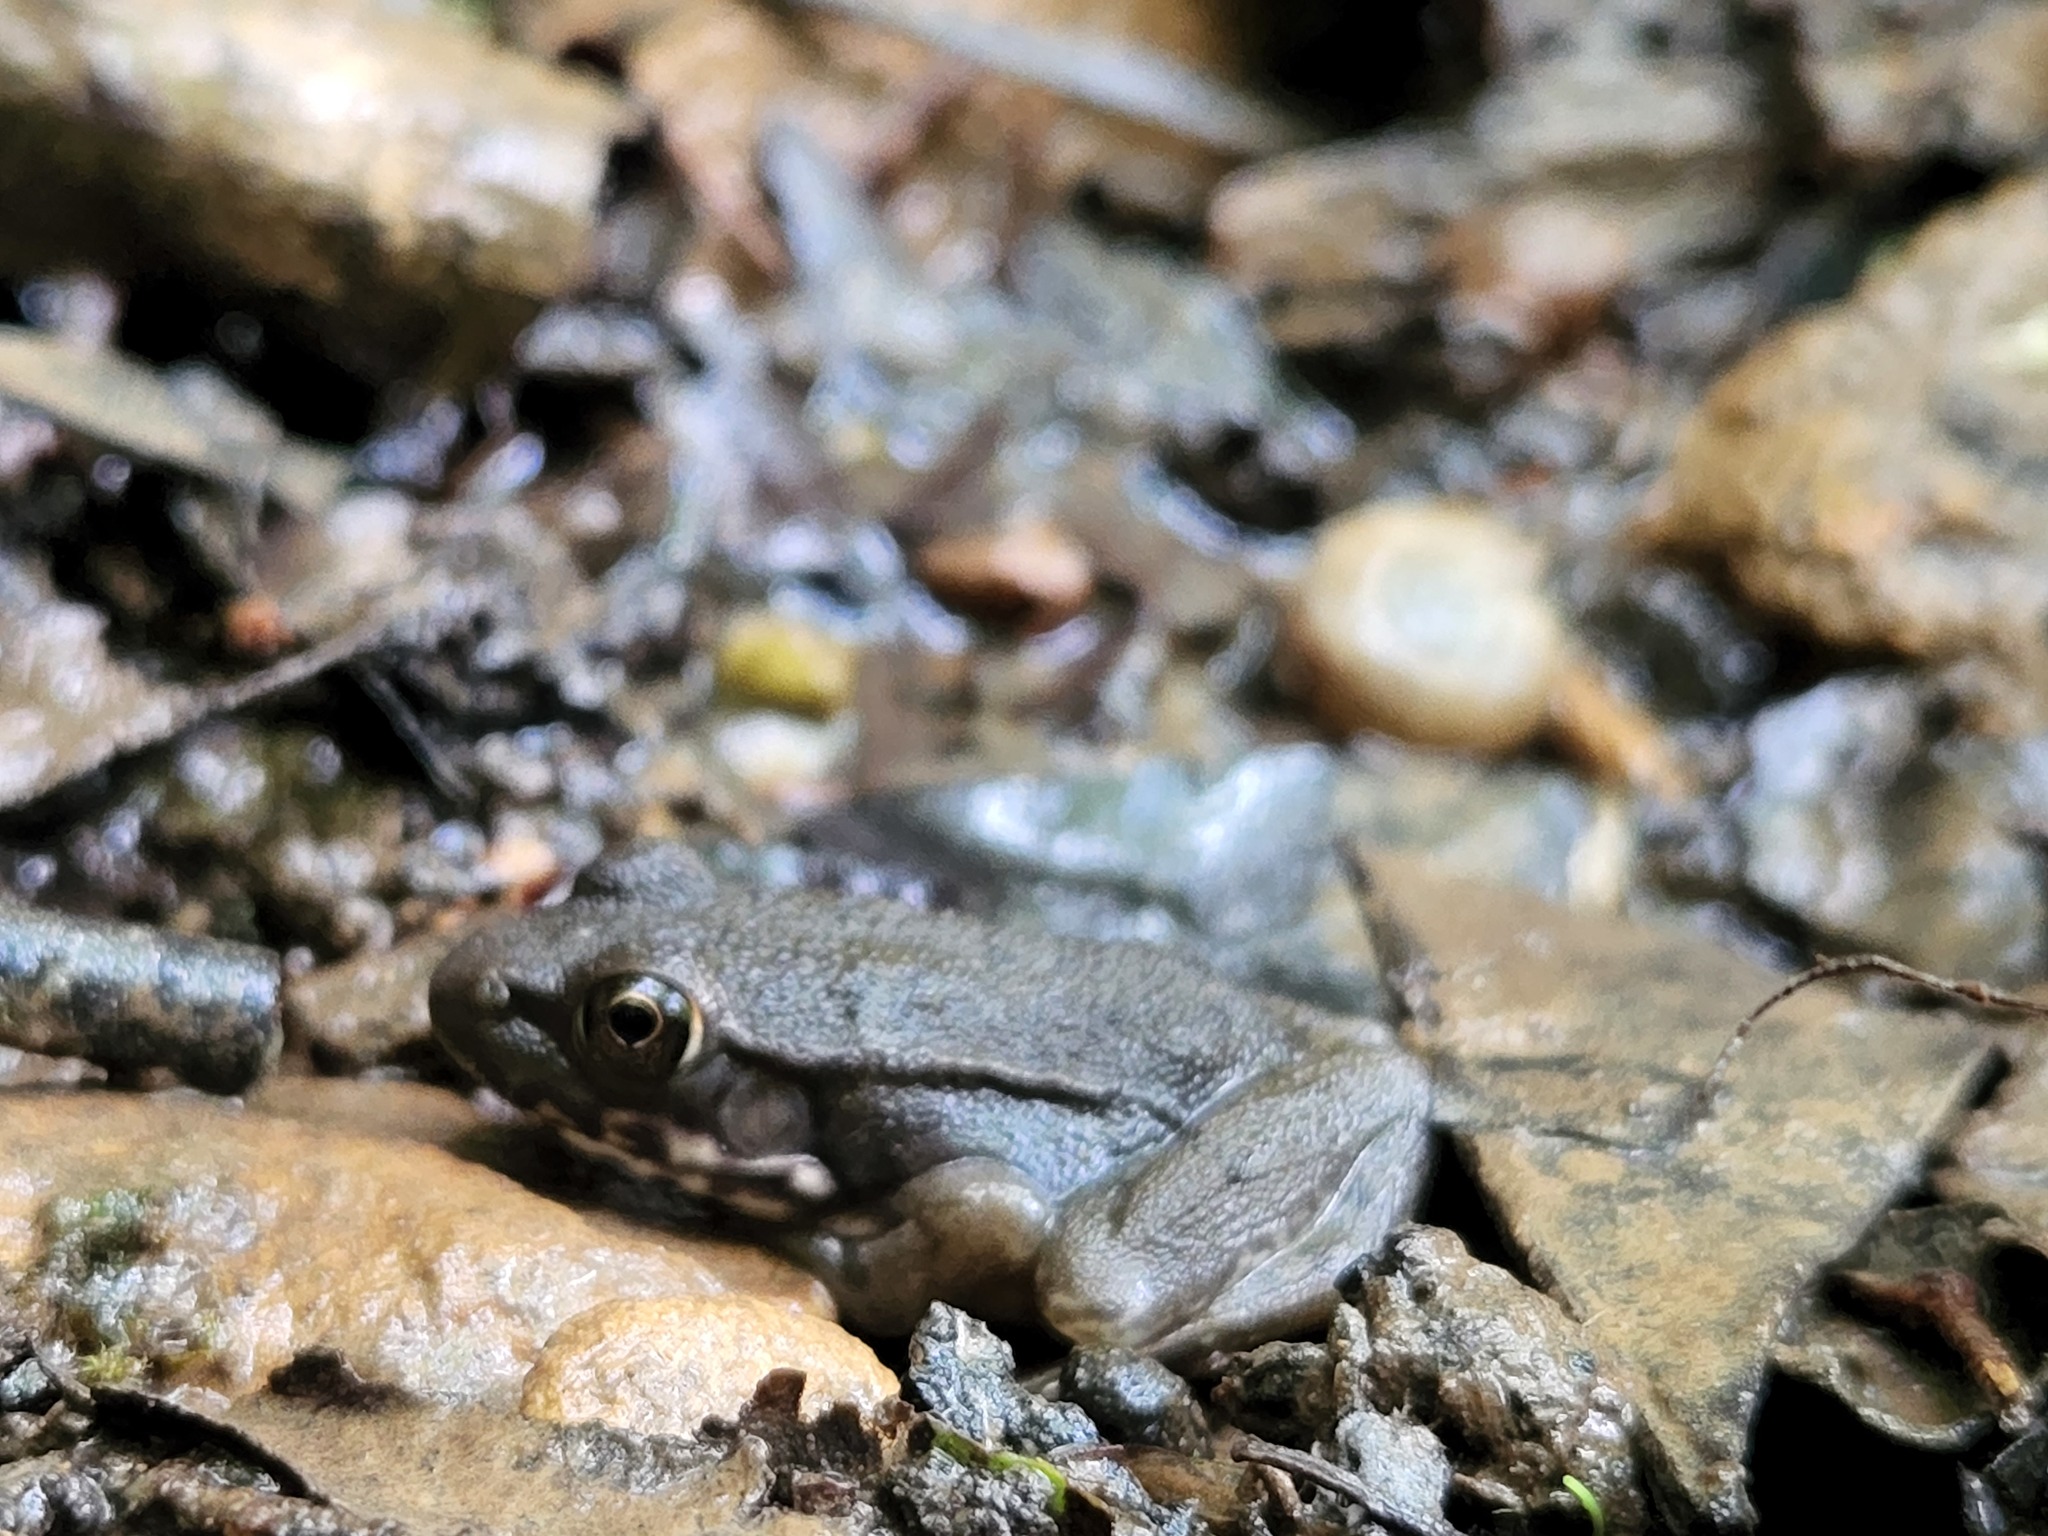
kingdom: Animalia
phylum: Chordata
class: Amphibia
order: Anura
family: Ranidae
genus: Lithobates
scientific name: Lithobates clamitans
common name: Green frog
